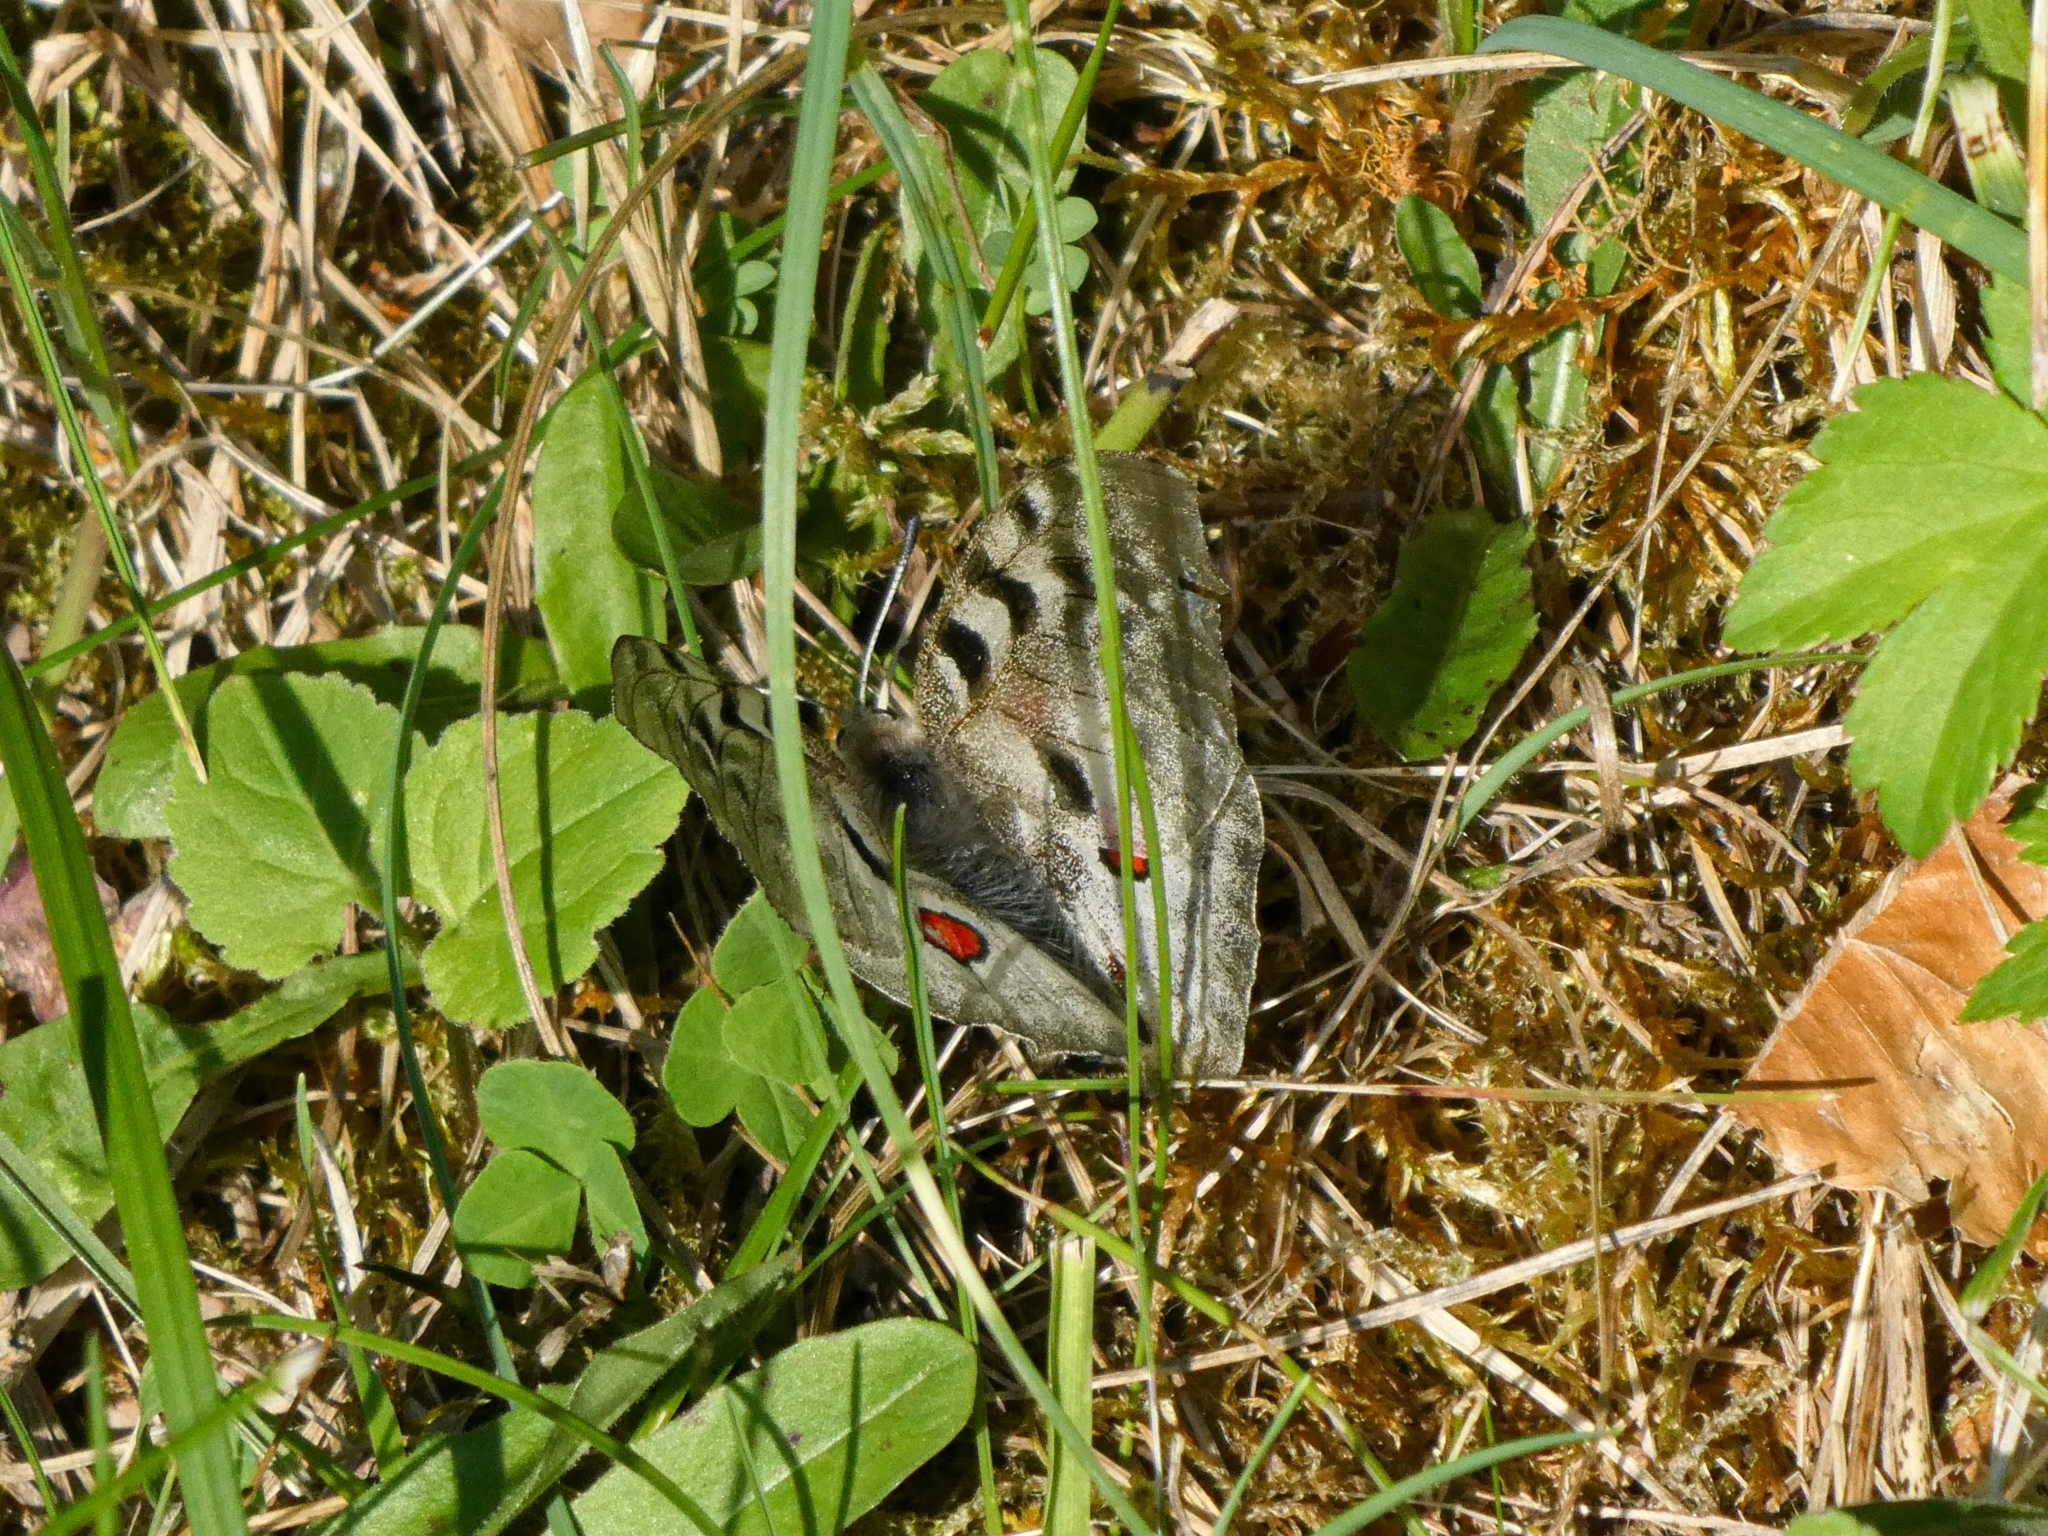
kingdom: Animalia
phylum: Arthropoda
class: Insecta
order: Lepidoptera
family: Papilionidae
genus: Parnassius
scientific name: Parnassius apollo
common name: Apollo
